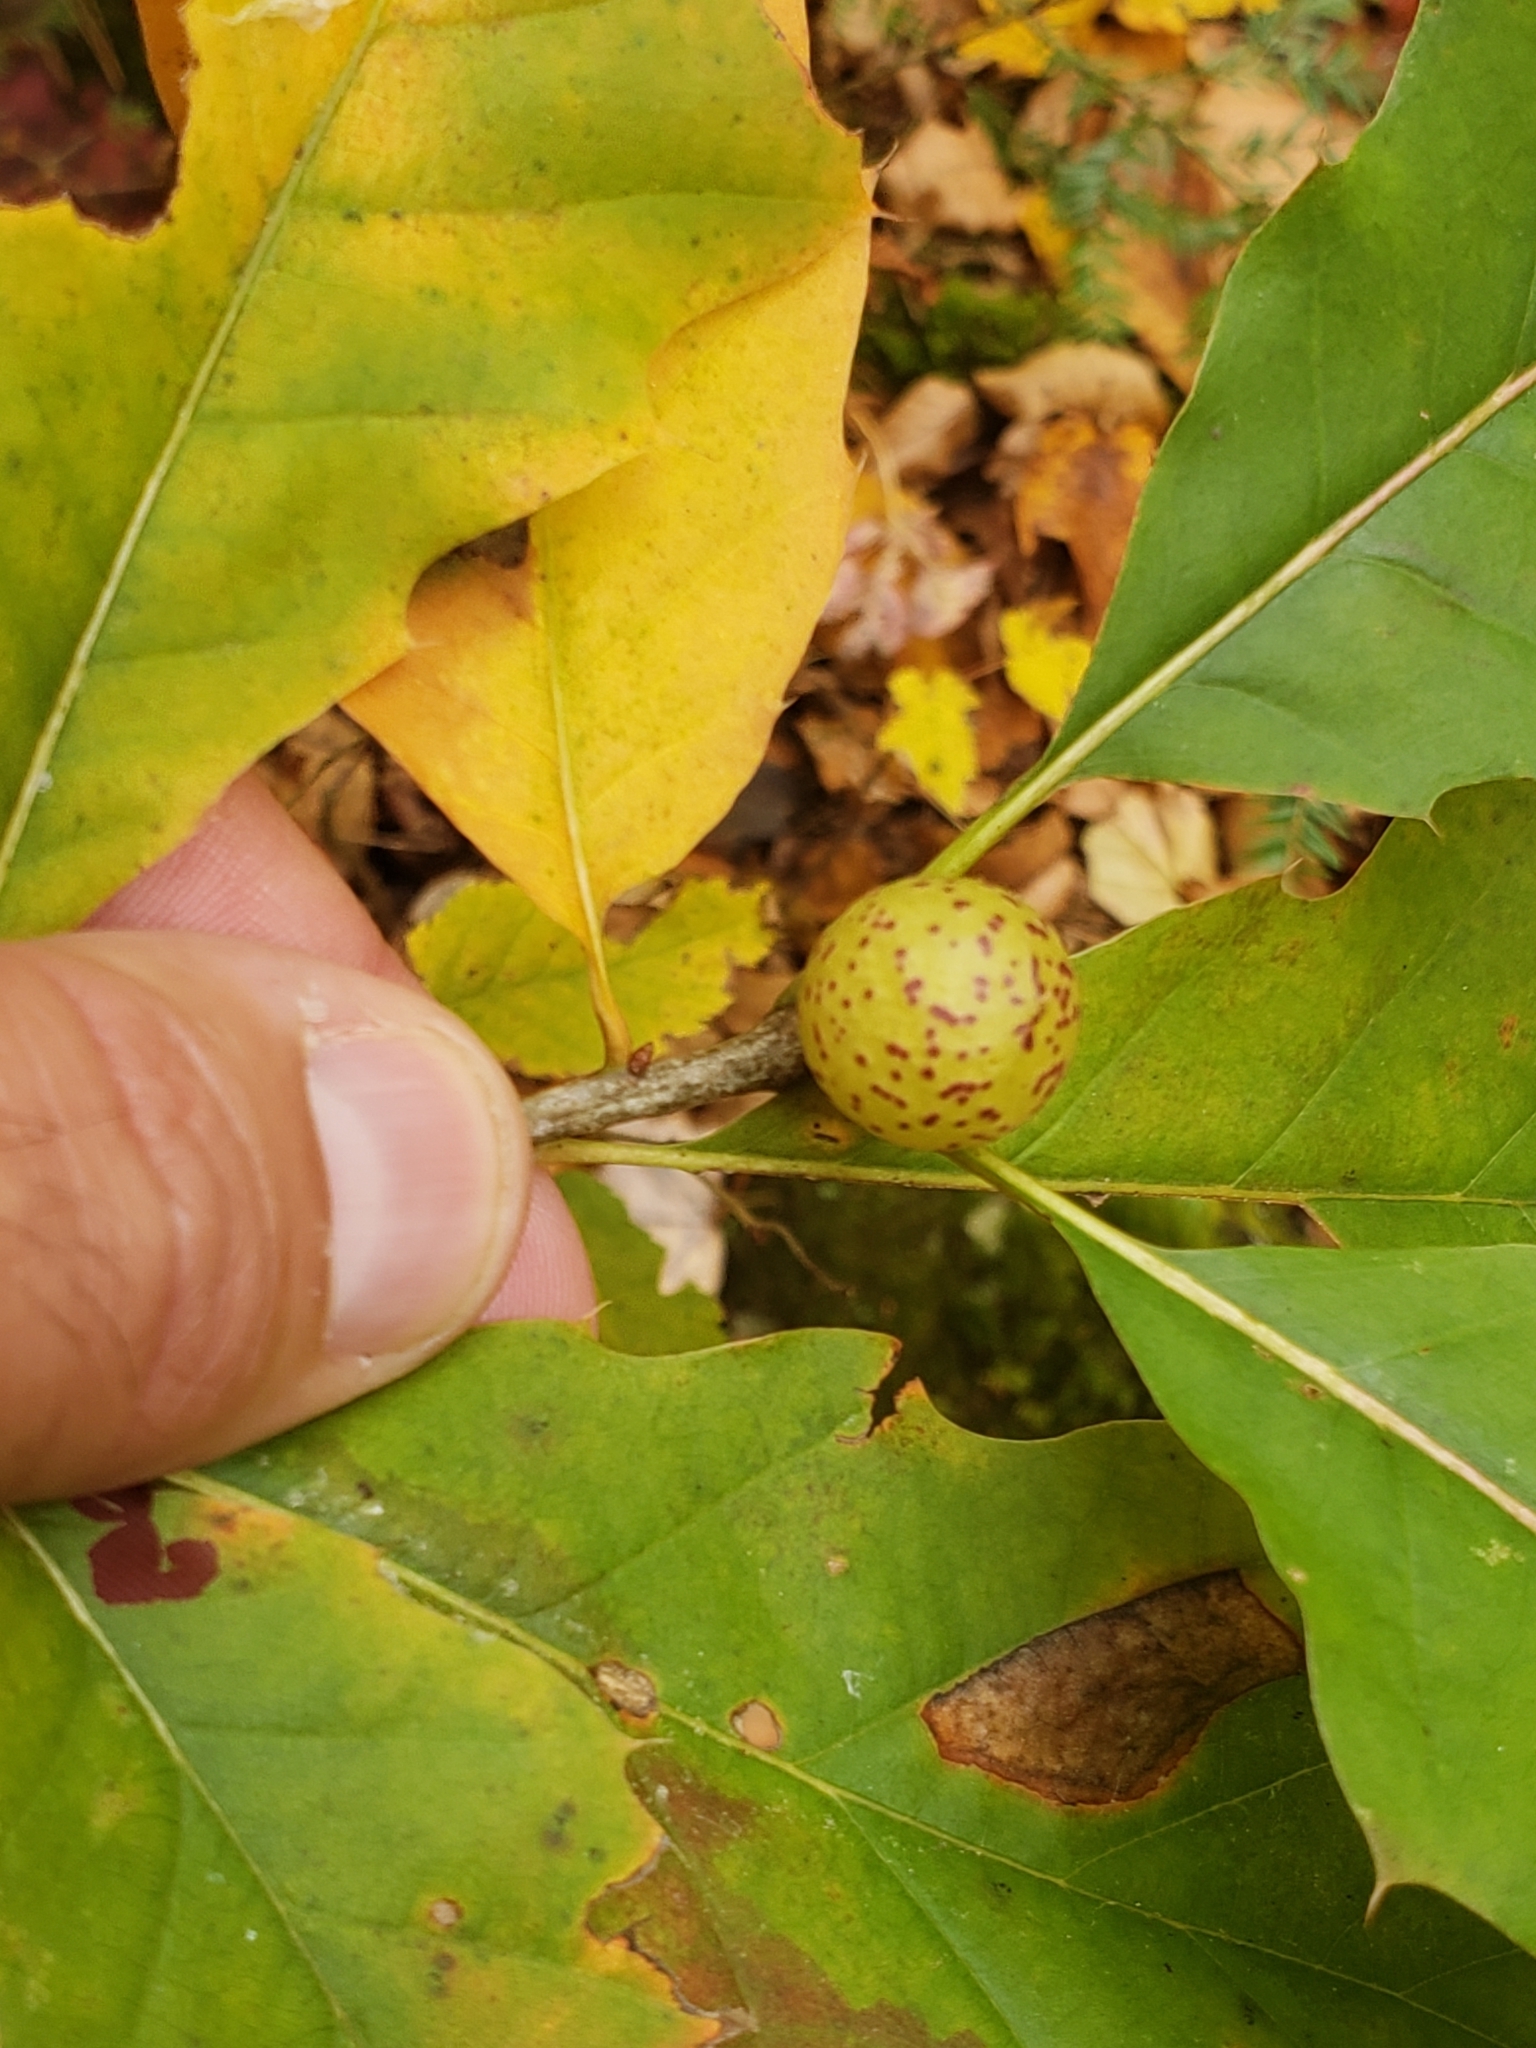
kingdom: Animalia
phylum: Arthropoda
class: Insecta
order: Hymenoptera
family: Cynipidae
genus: Amphibolips
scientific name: Amphibolips
